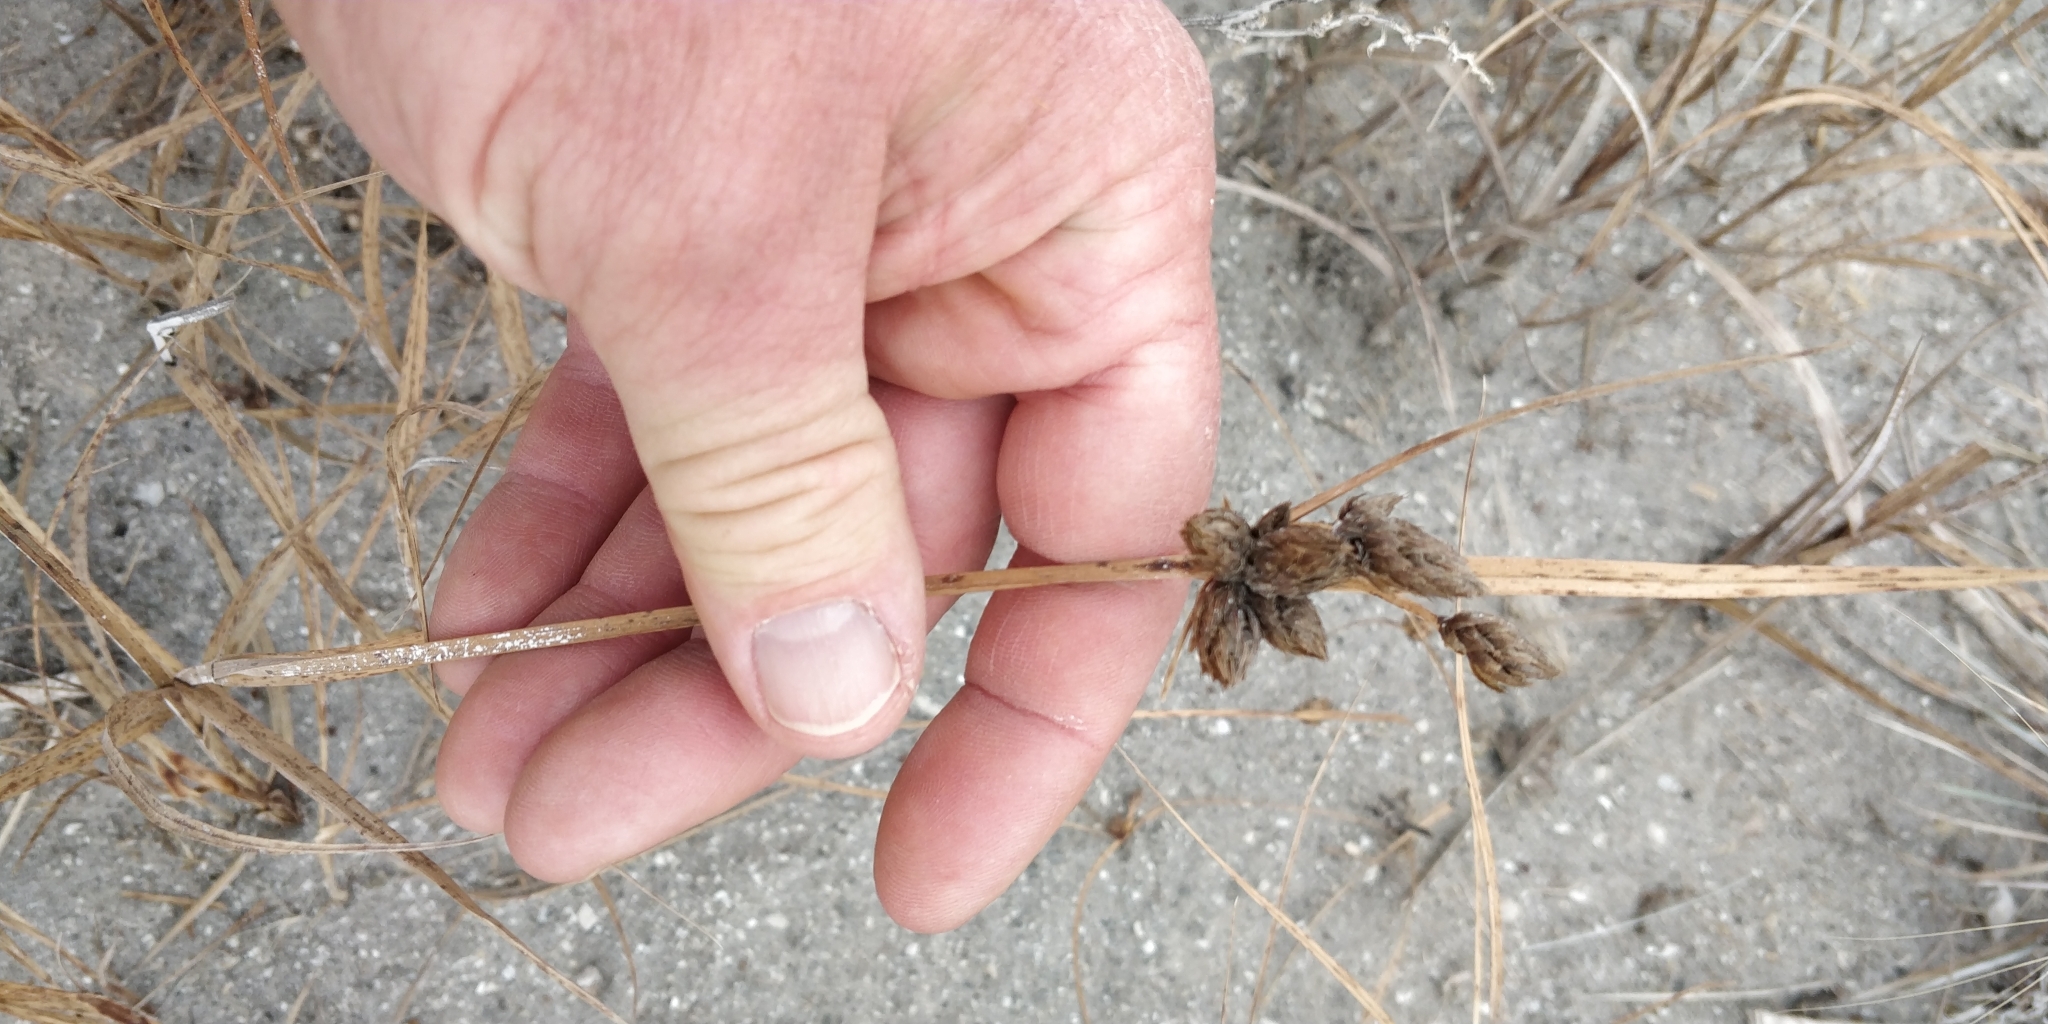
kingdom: Plantae
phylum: Tracheophyta
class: Liliopsida
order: Poales
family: Cyperaceae
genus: Bolboschoenus
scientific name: Bolboschoenus maritimus
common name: Sea club-rush
